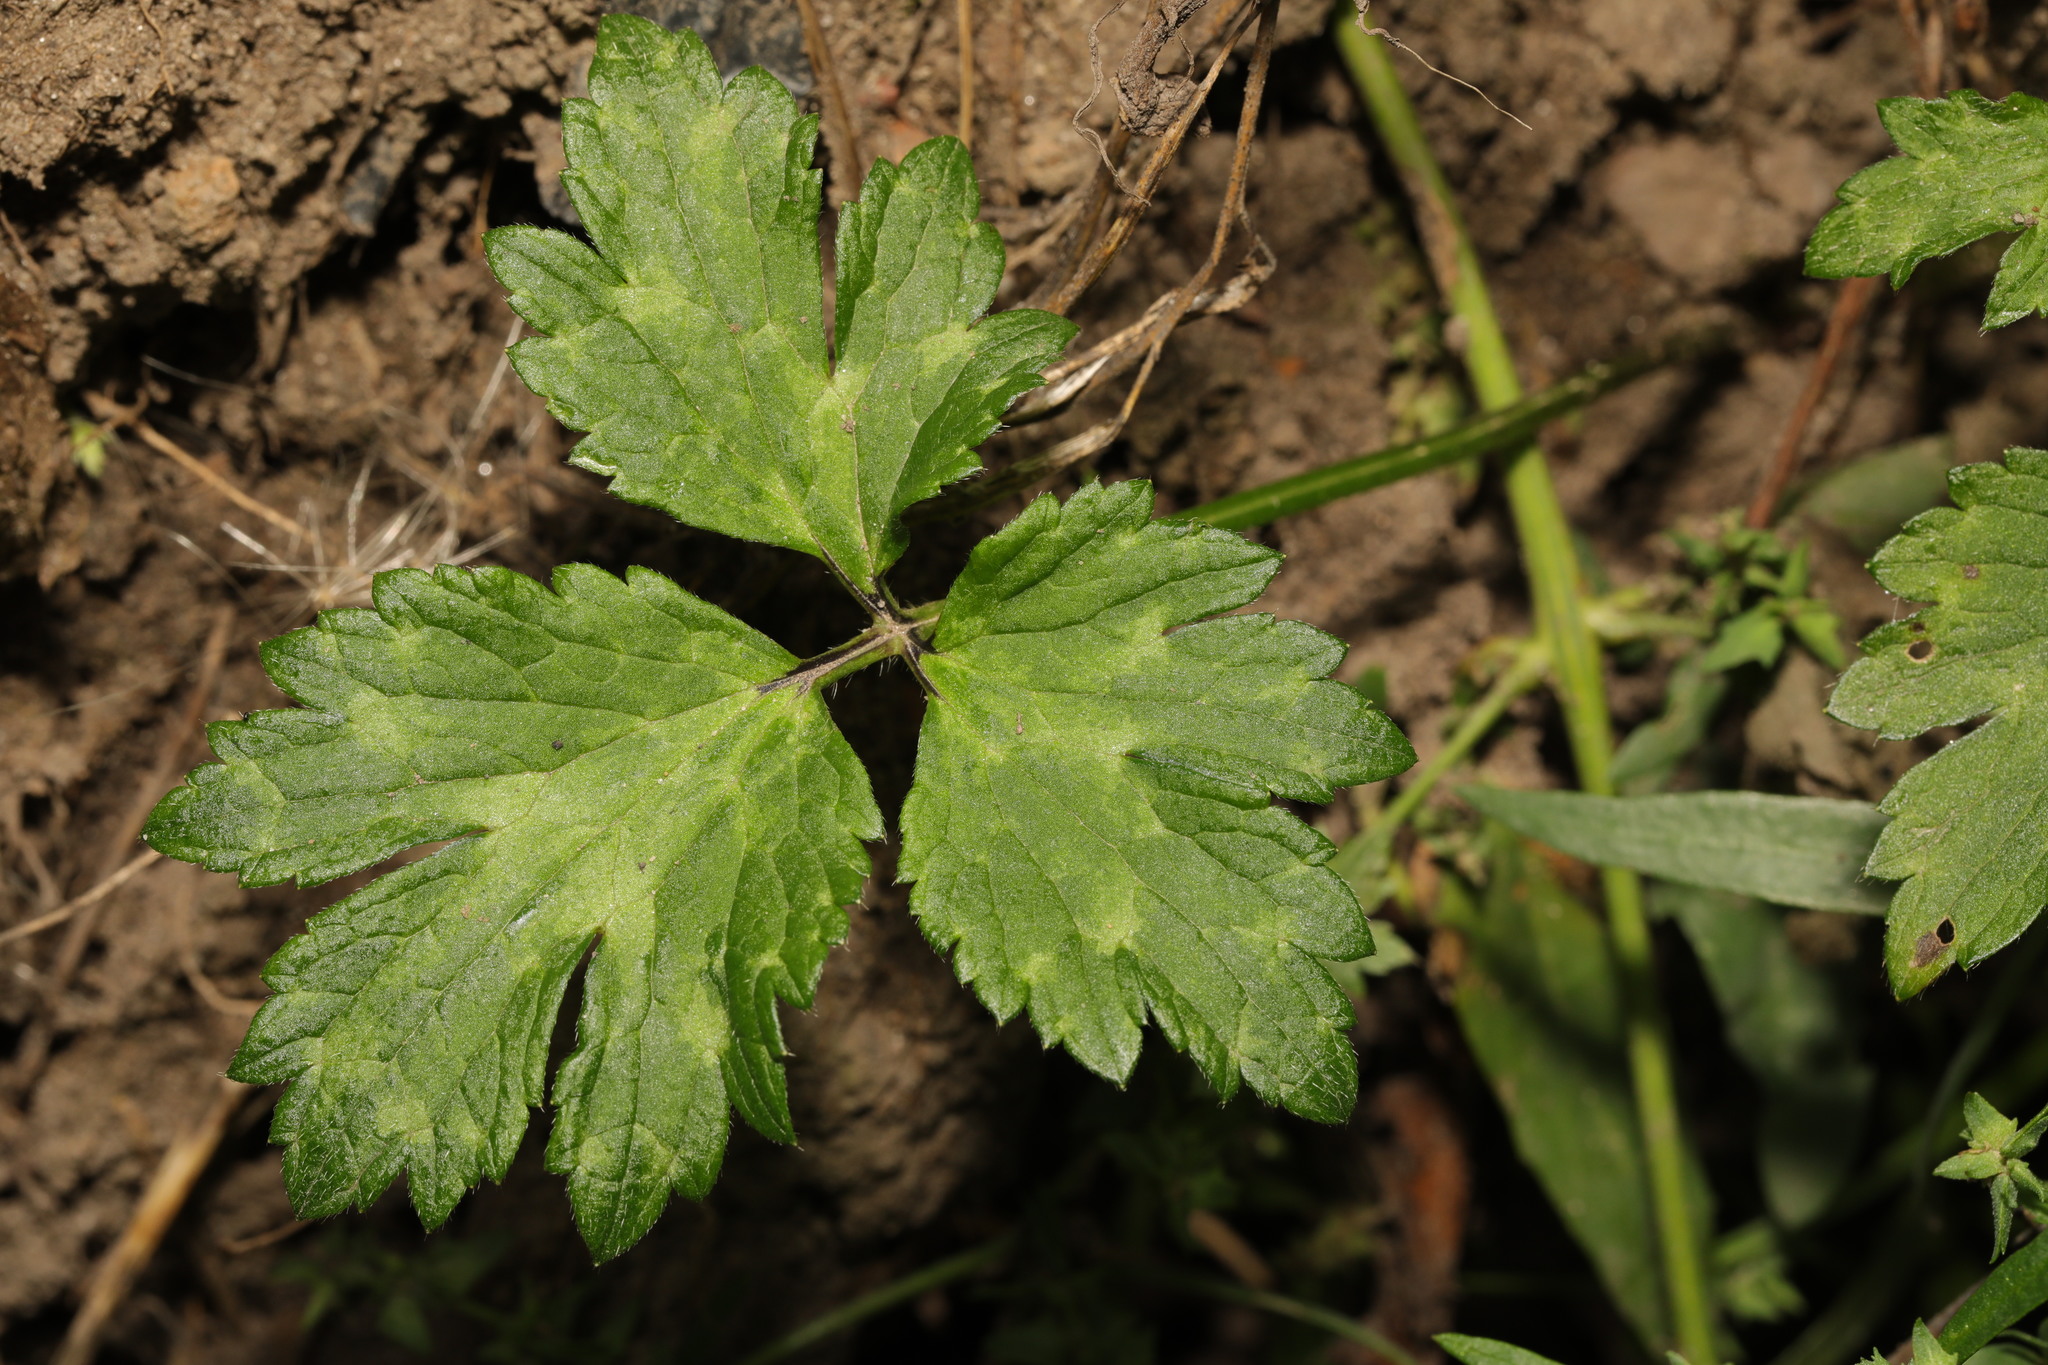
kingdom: Plantae
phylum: Tracheophyta
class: Magnoliopsida
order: Ranunculales
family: Ranunculaceae
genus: Ranunculus
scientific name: Ranunculus repens
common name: Creeping buttercup
